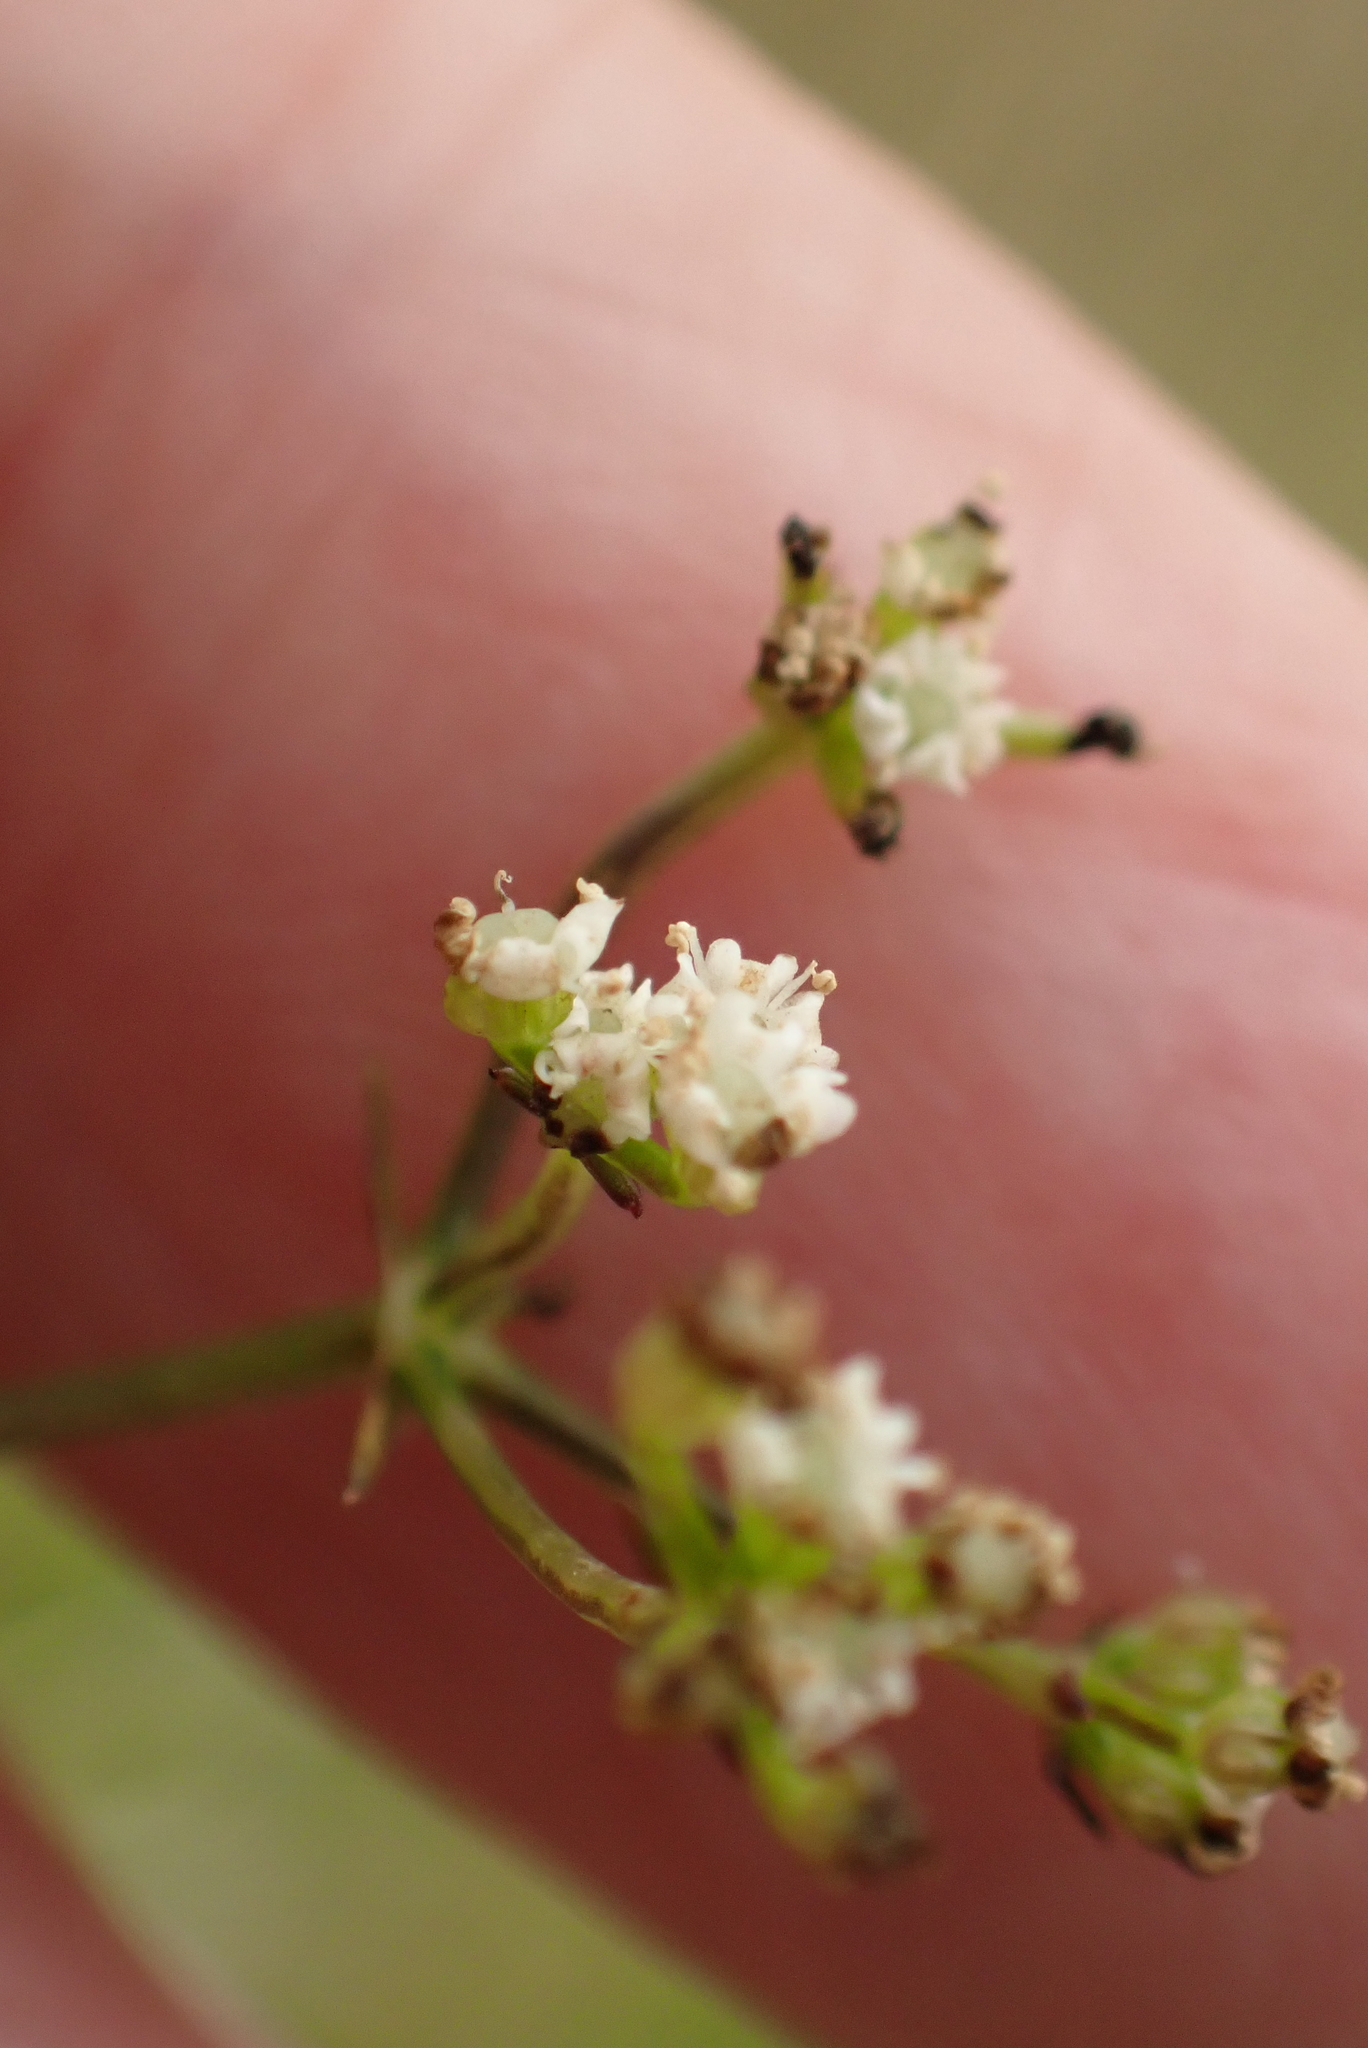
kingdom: Plantae
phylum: Tracheophyta
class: Magnoliopsida
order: Apiales
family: Apiaceae
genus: Sison
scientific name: Sison amomum
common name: Stone-parsley
